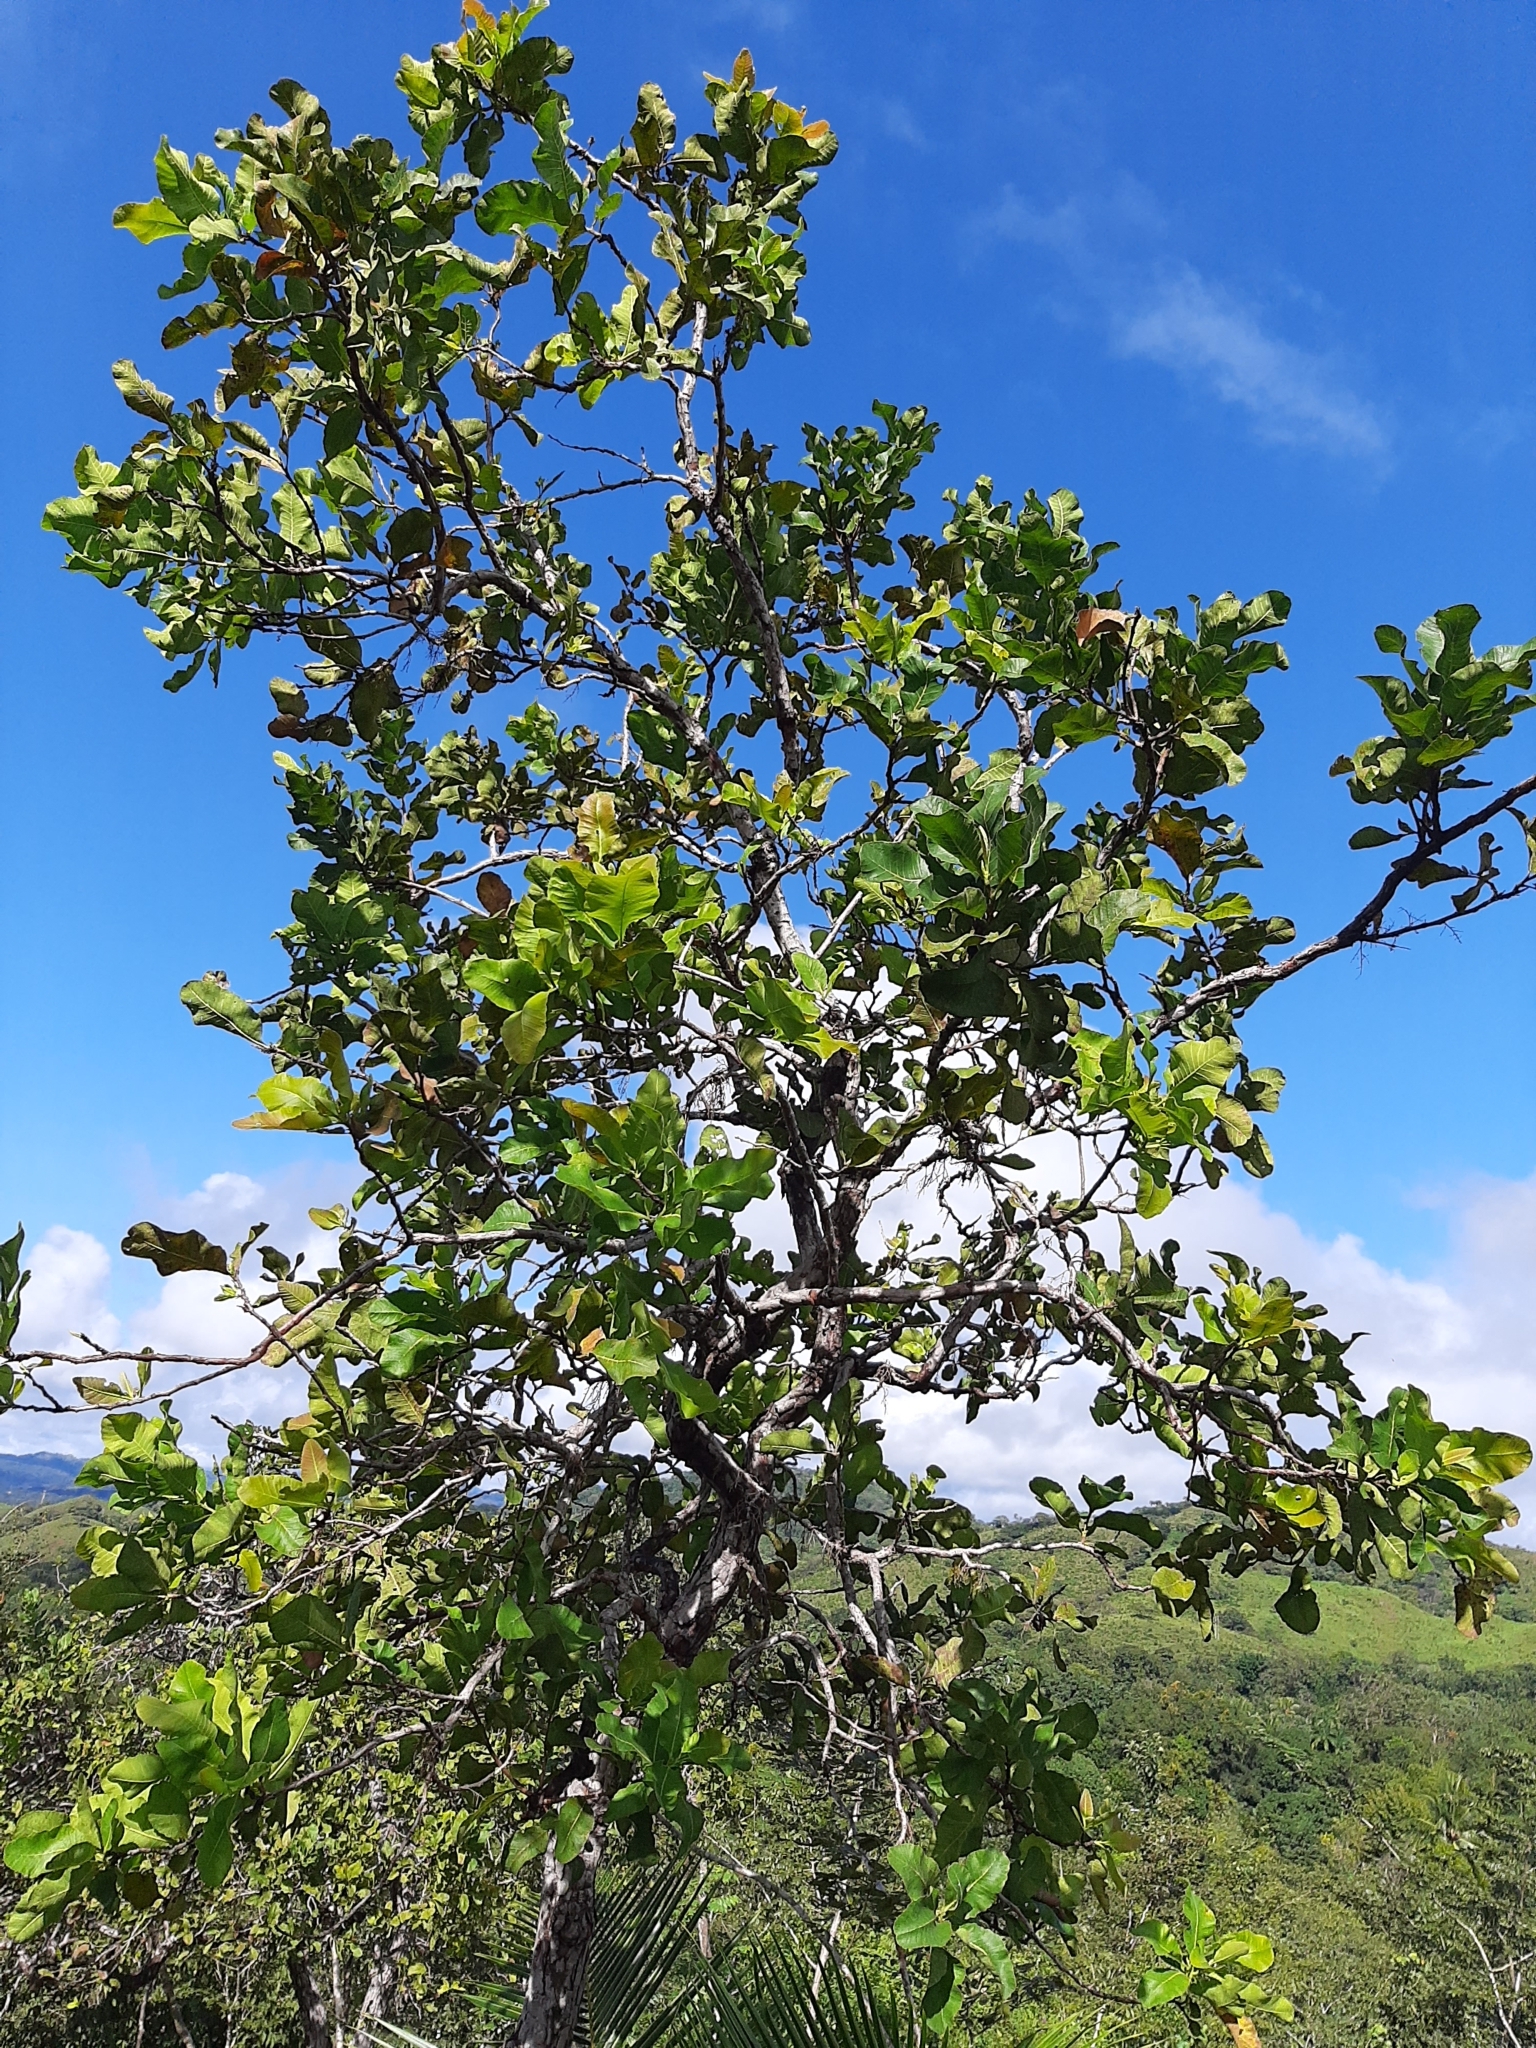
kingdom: Plantae
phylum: Tracheophyta
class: Magnoliopsida
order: Dilleniales
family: Dilleniaceae
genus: Curatella
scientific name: Curatella americana
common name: Sandpaper tree
